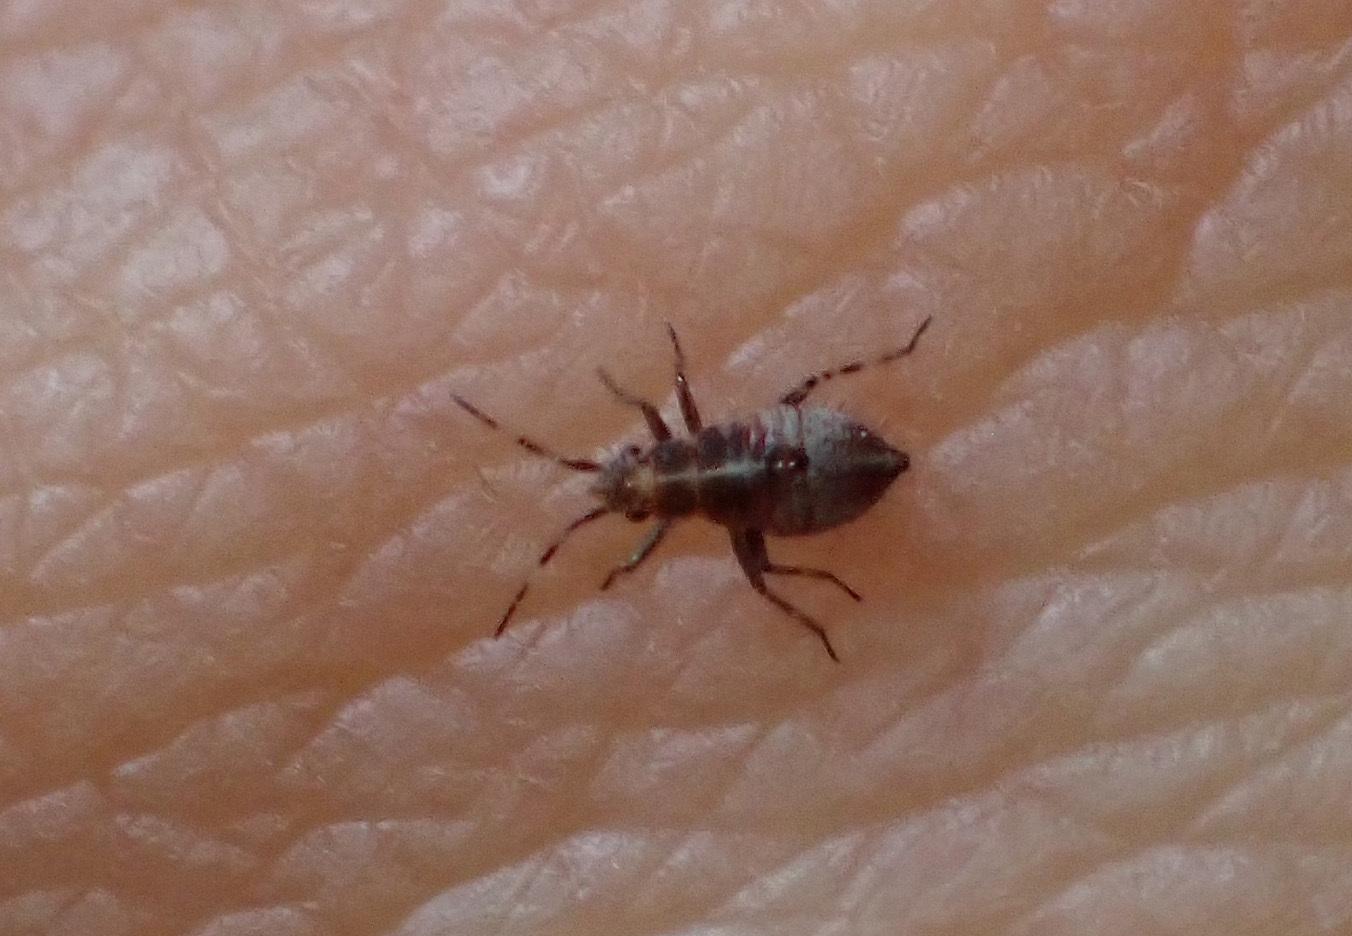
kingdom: Animalia
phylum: Arthropoda
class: Insecta
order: Hemiptera
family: Miridae
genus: Deraeocoris
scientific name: Deraeocoris flavilinea
